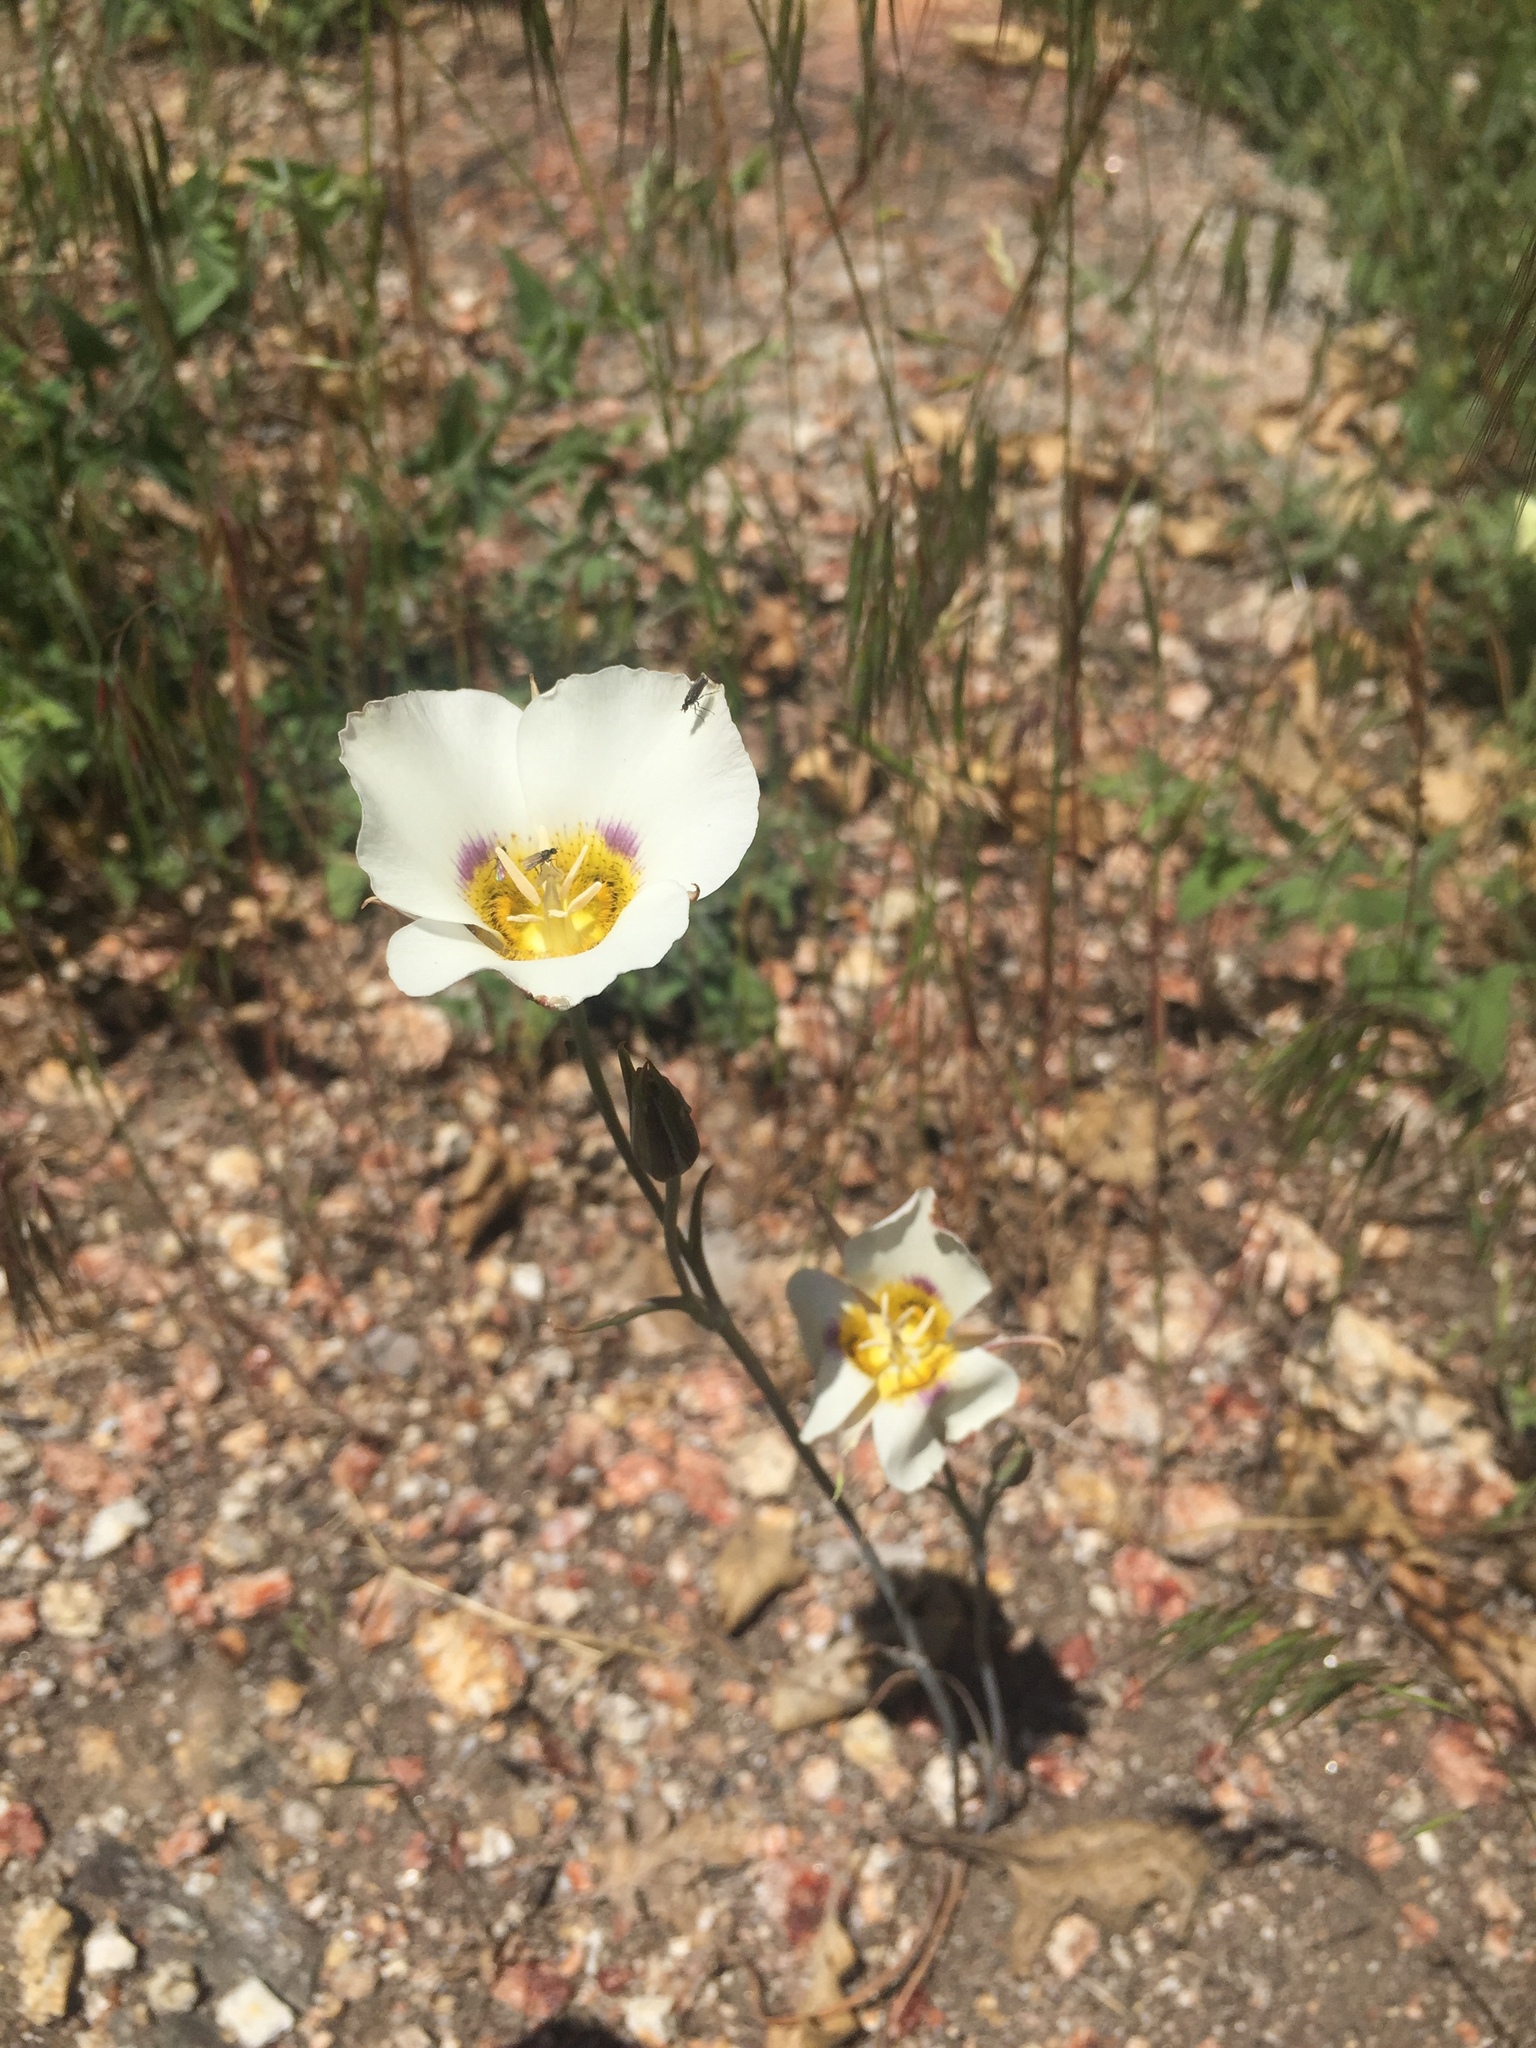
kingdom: Plantae
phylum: Tracheophyta
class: Liliopsida
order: Liliales
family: Liliaceae
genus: Calochortus
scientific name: Calochortus leichtlinii
